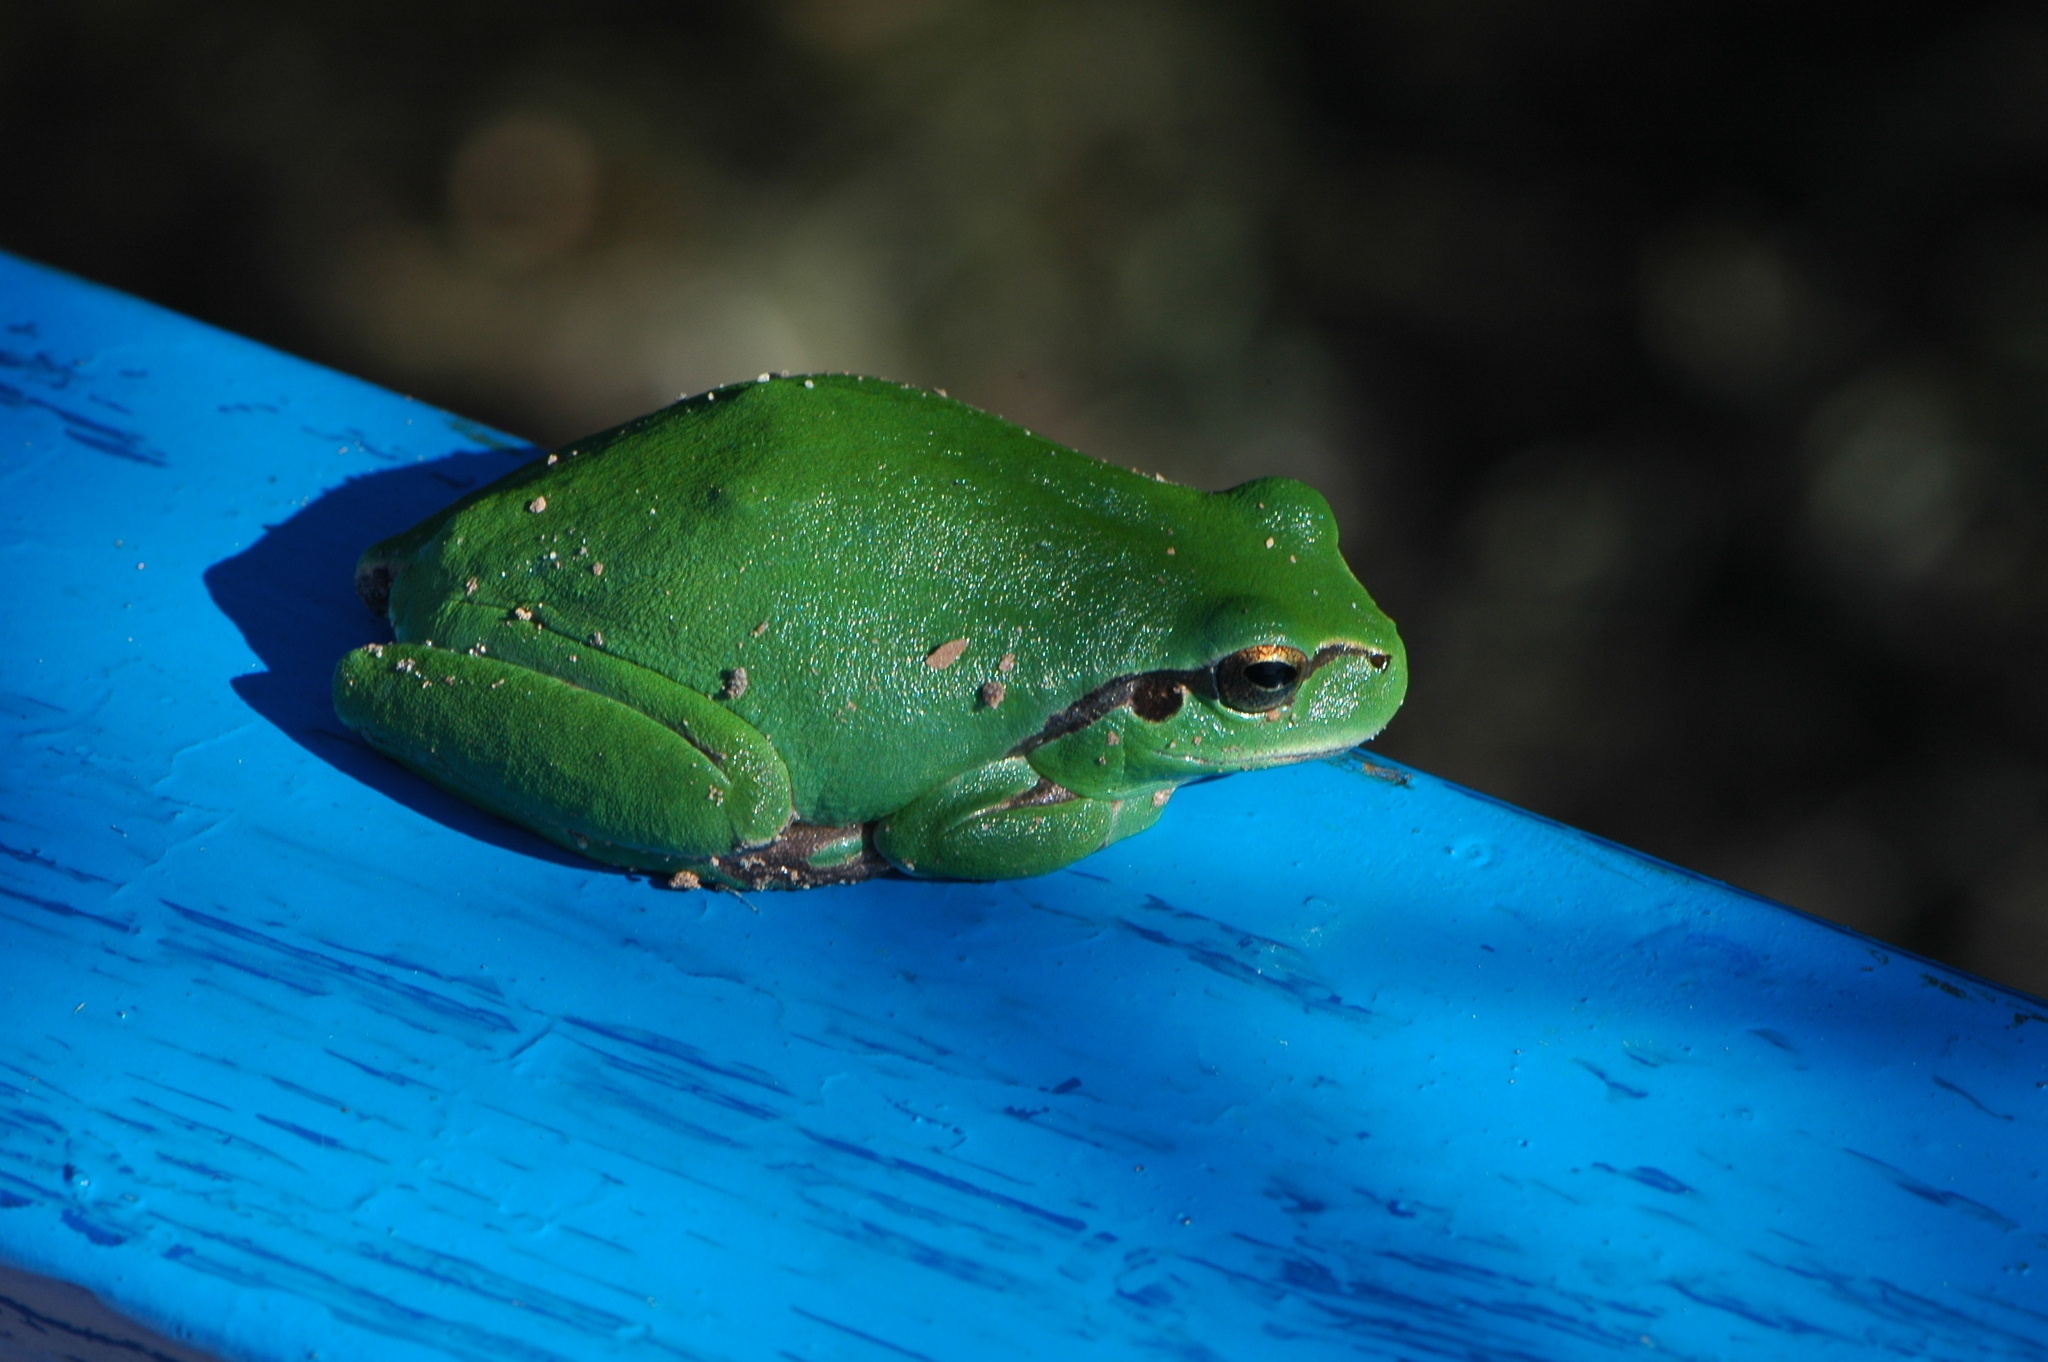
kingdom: Animalia
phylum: Chordata
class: Amphibia
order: Anura
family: Hylidae
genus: Hyla
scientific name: Hyla meridionalis
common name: Stripeless tree frog
